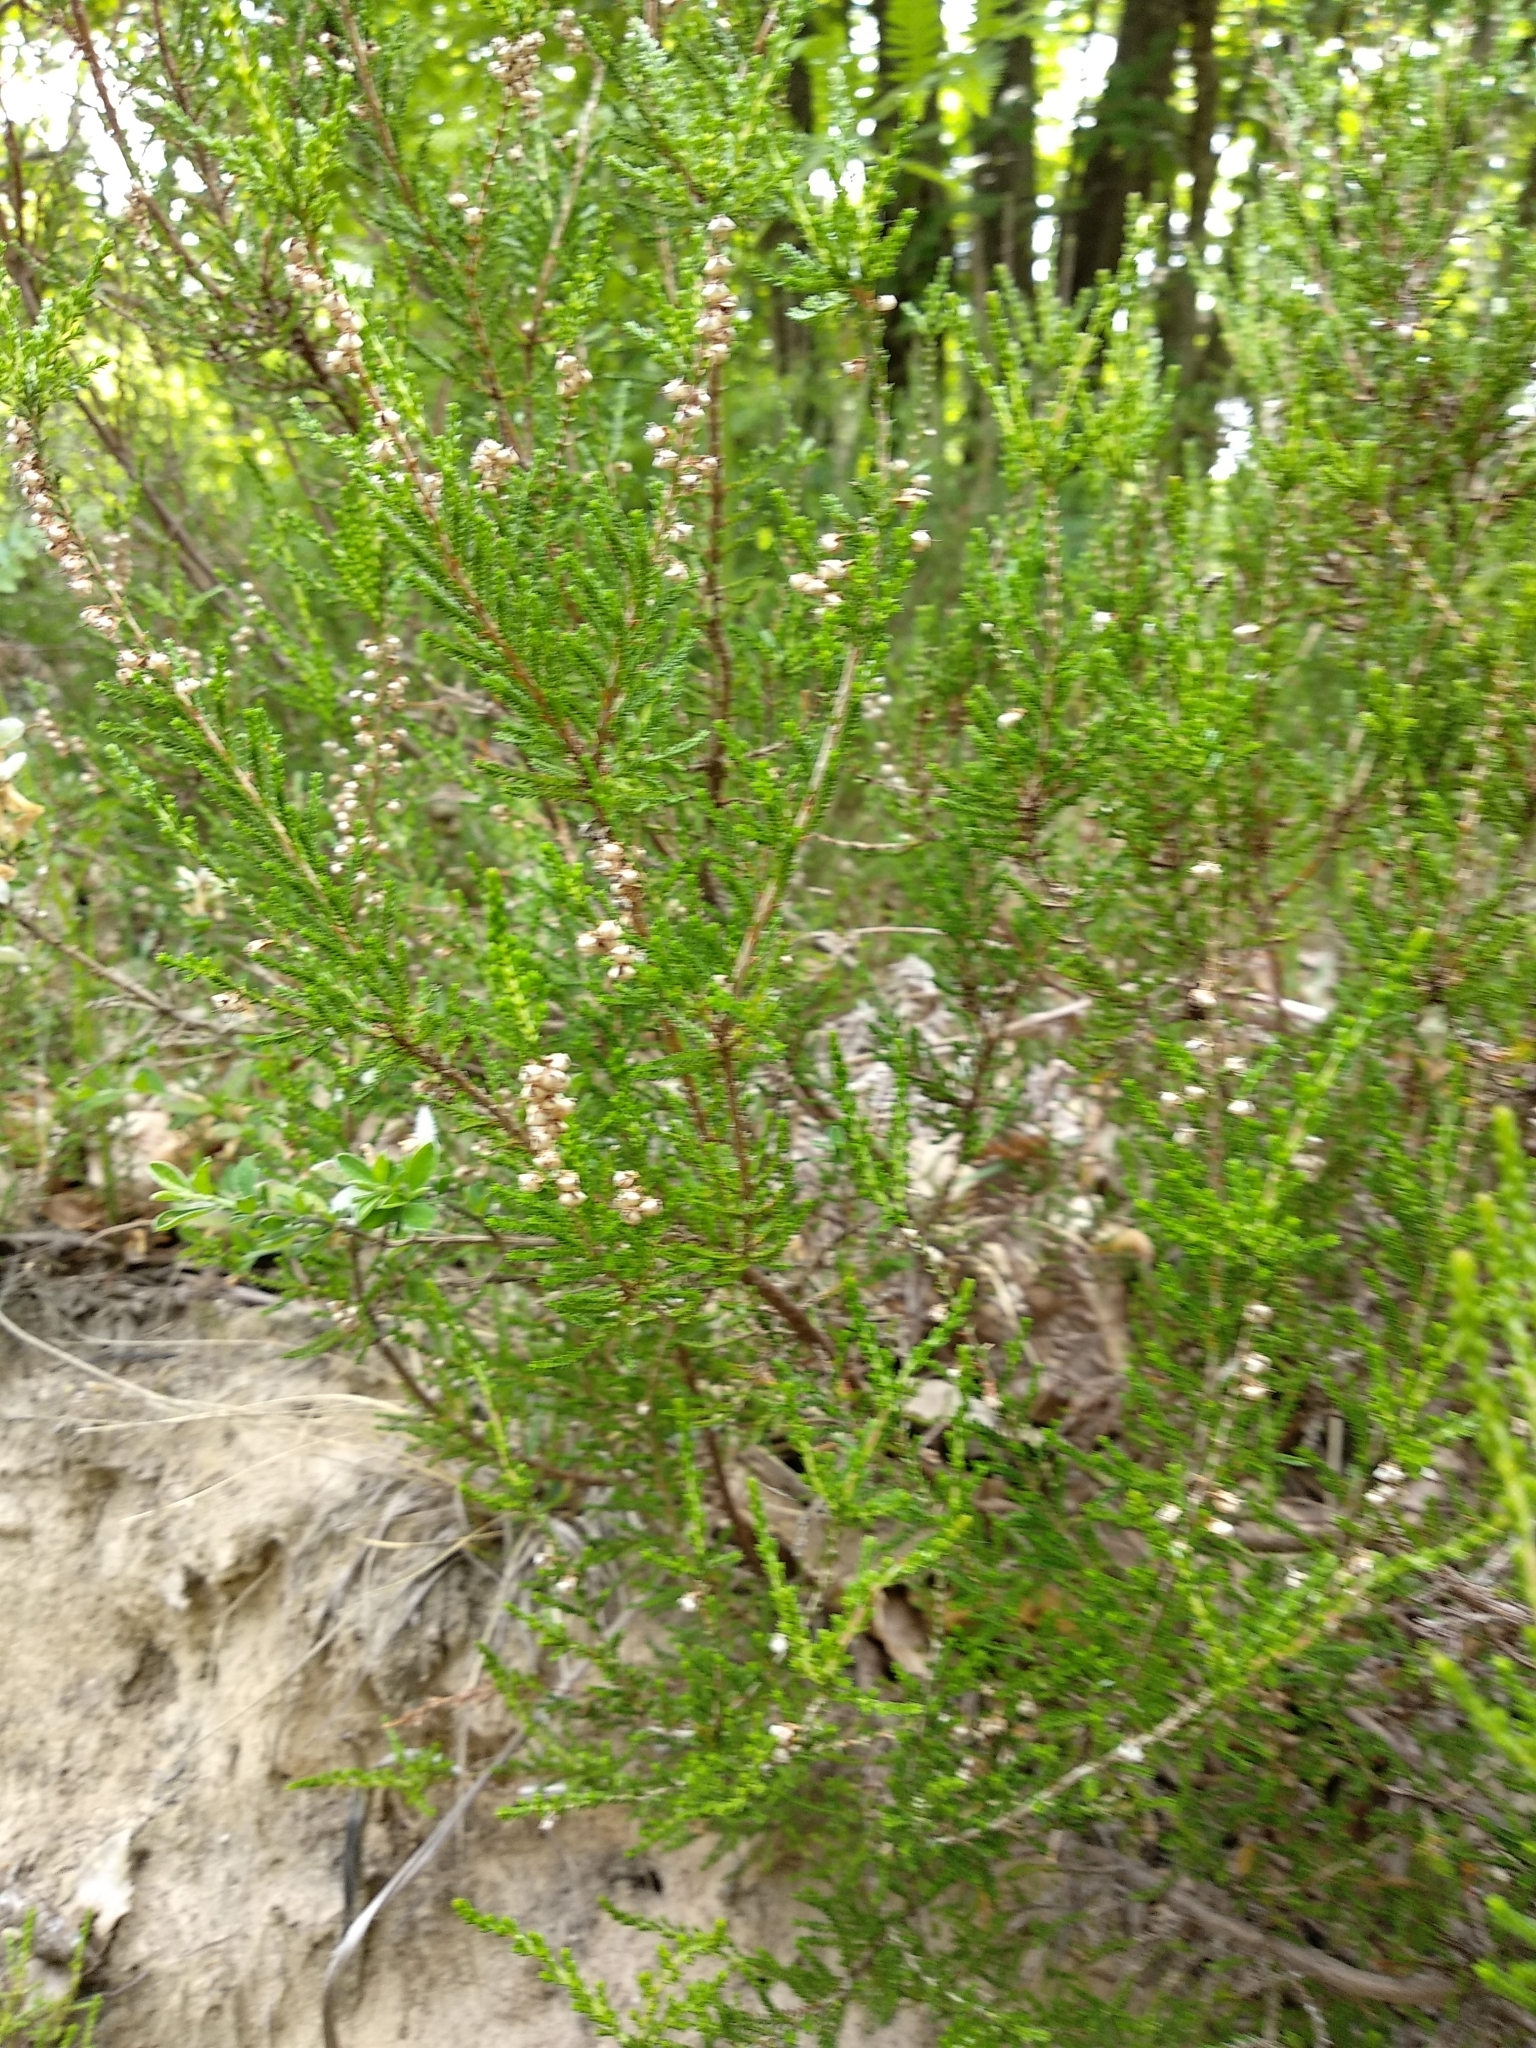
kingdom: Plantae
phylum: Tracheophyta
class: Magnoliopsida
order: Ericales
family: Ericaceae
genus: Calluna
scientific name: Calluna vulgaris
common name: Heather
